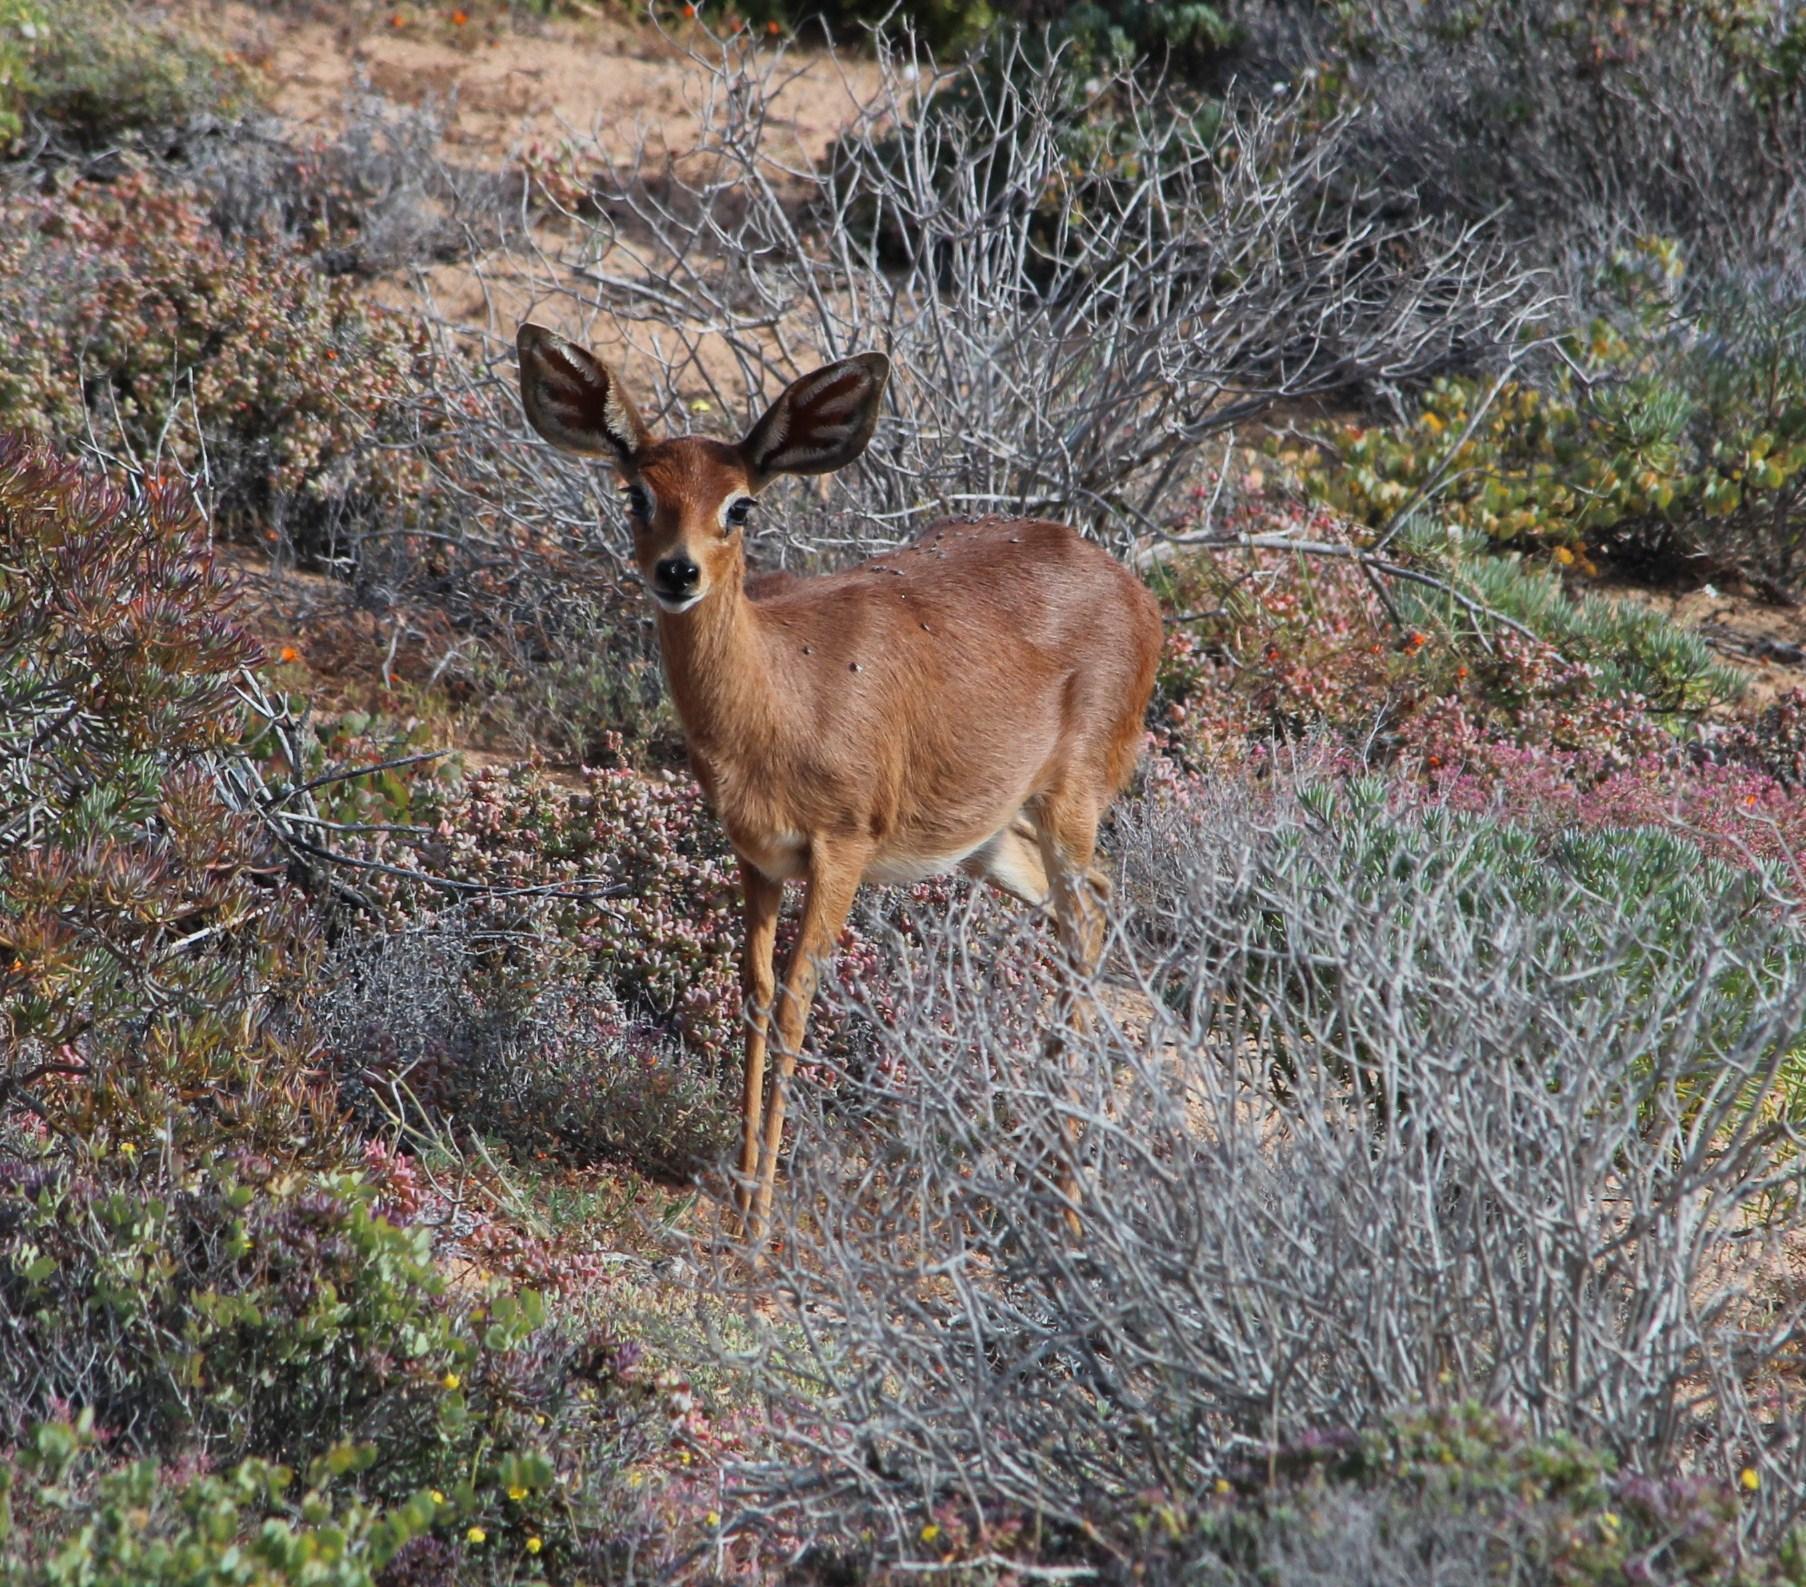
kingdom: Animalia
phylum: Chordata
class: Mammalia
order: Artiodactyla
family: Bovidae
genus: Raphicerus
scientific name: Raphicerus campestris
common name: Steenbok
